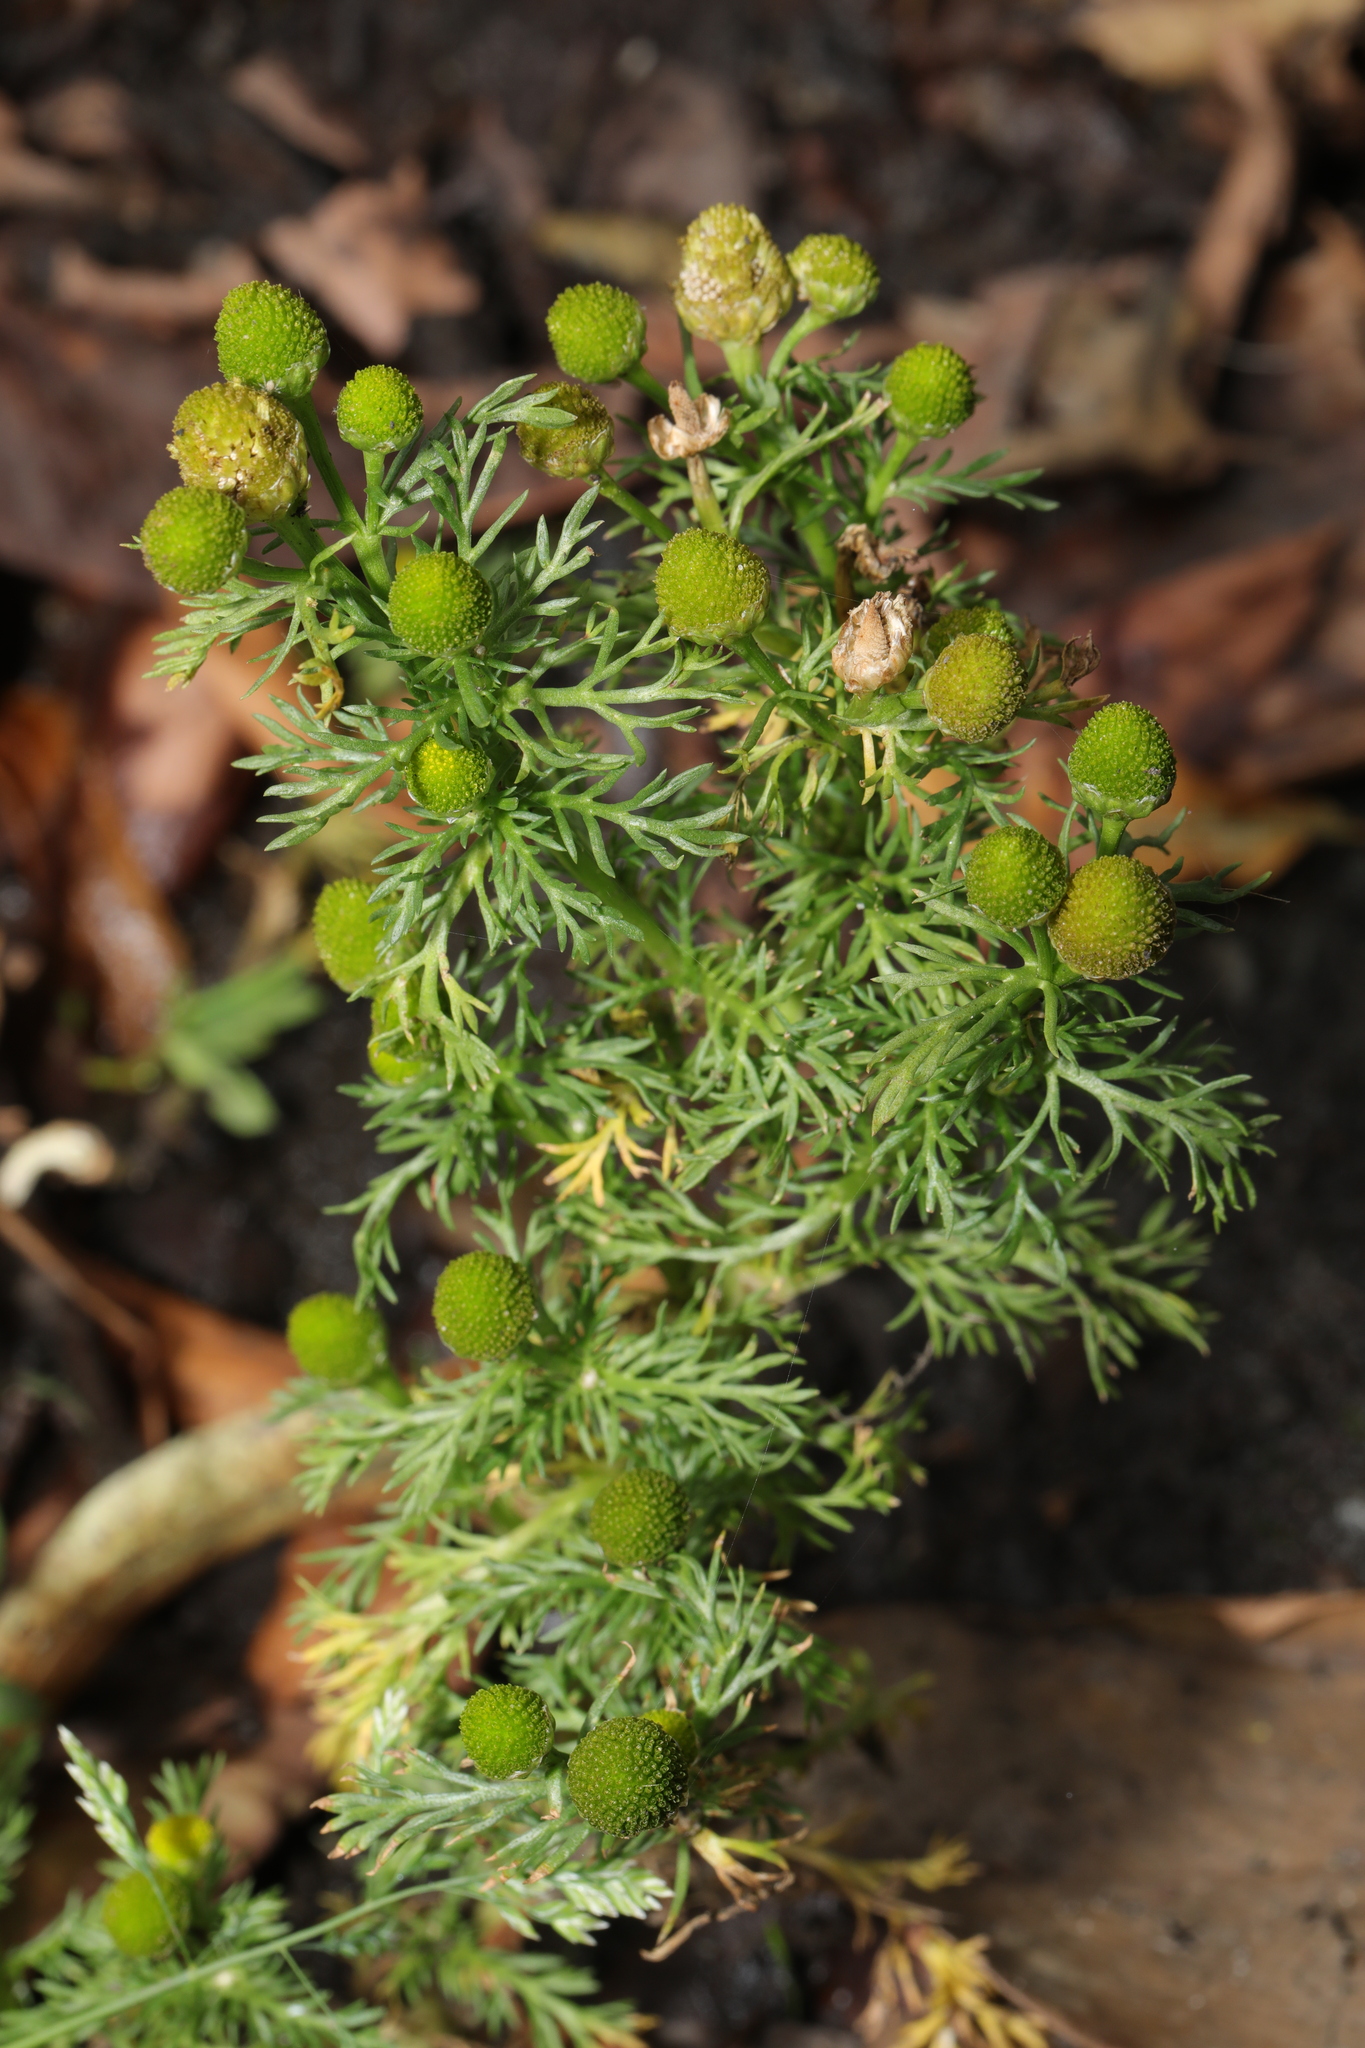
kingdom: Plantae
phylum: Tracheophyta
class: Magnoliopsida
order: Asterales
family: Asteraceae
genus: Matricaria
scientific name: Matricaria discoidea
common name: Disc mayweed
